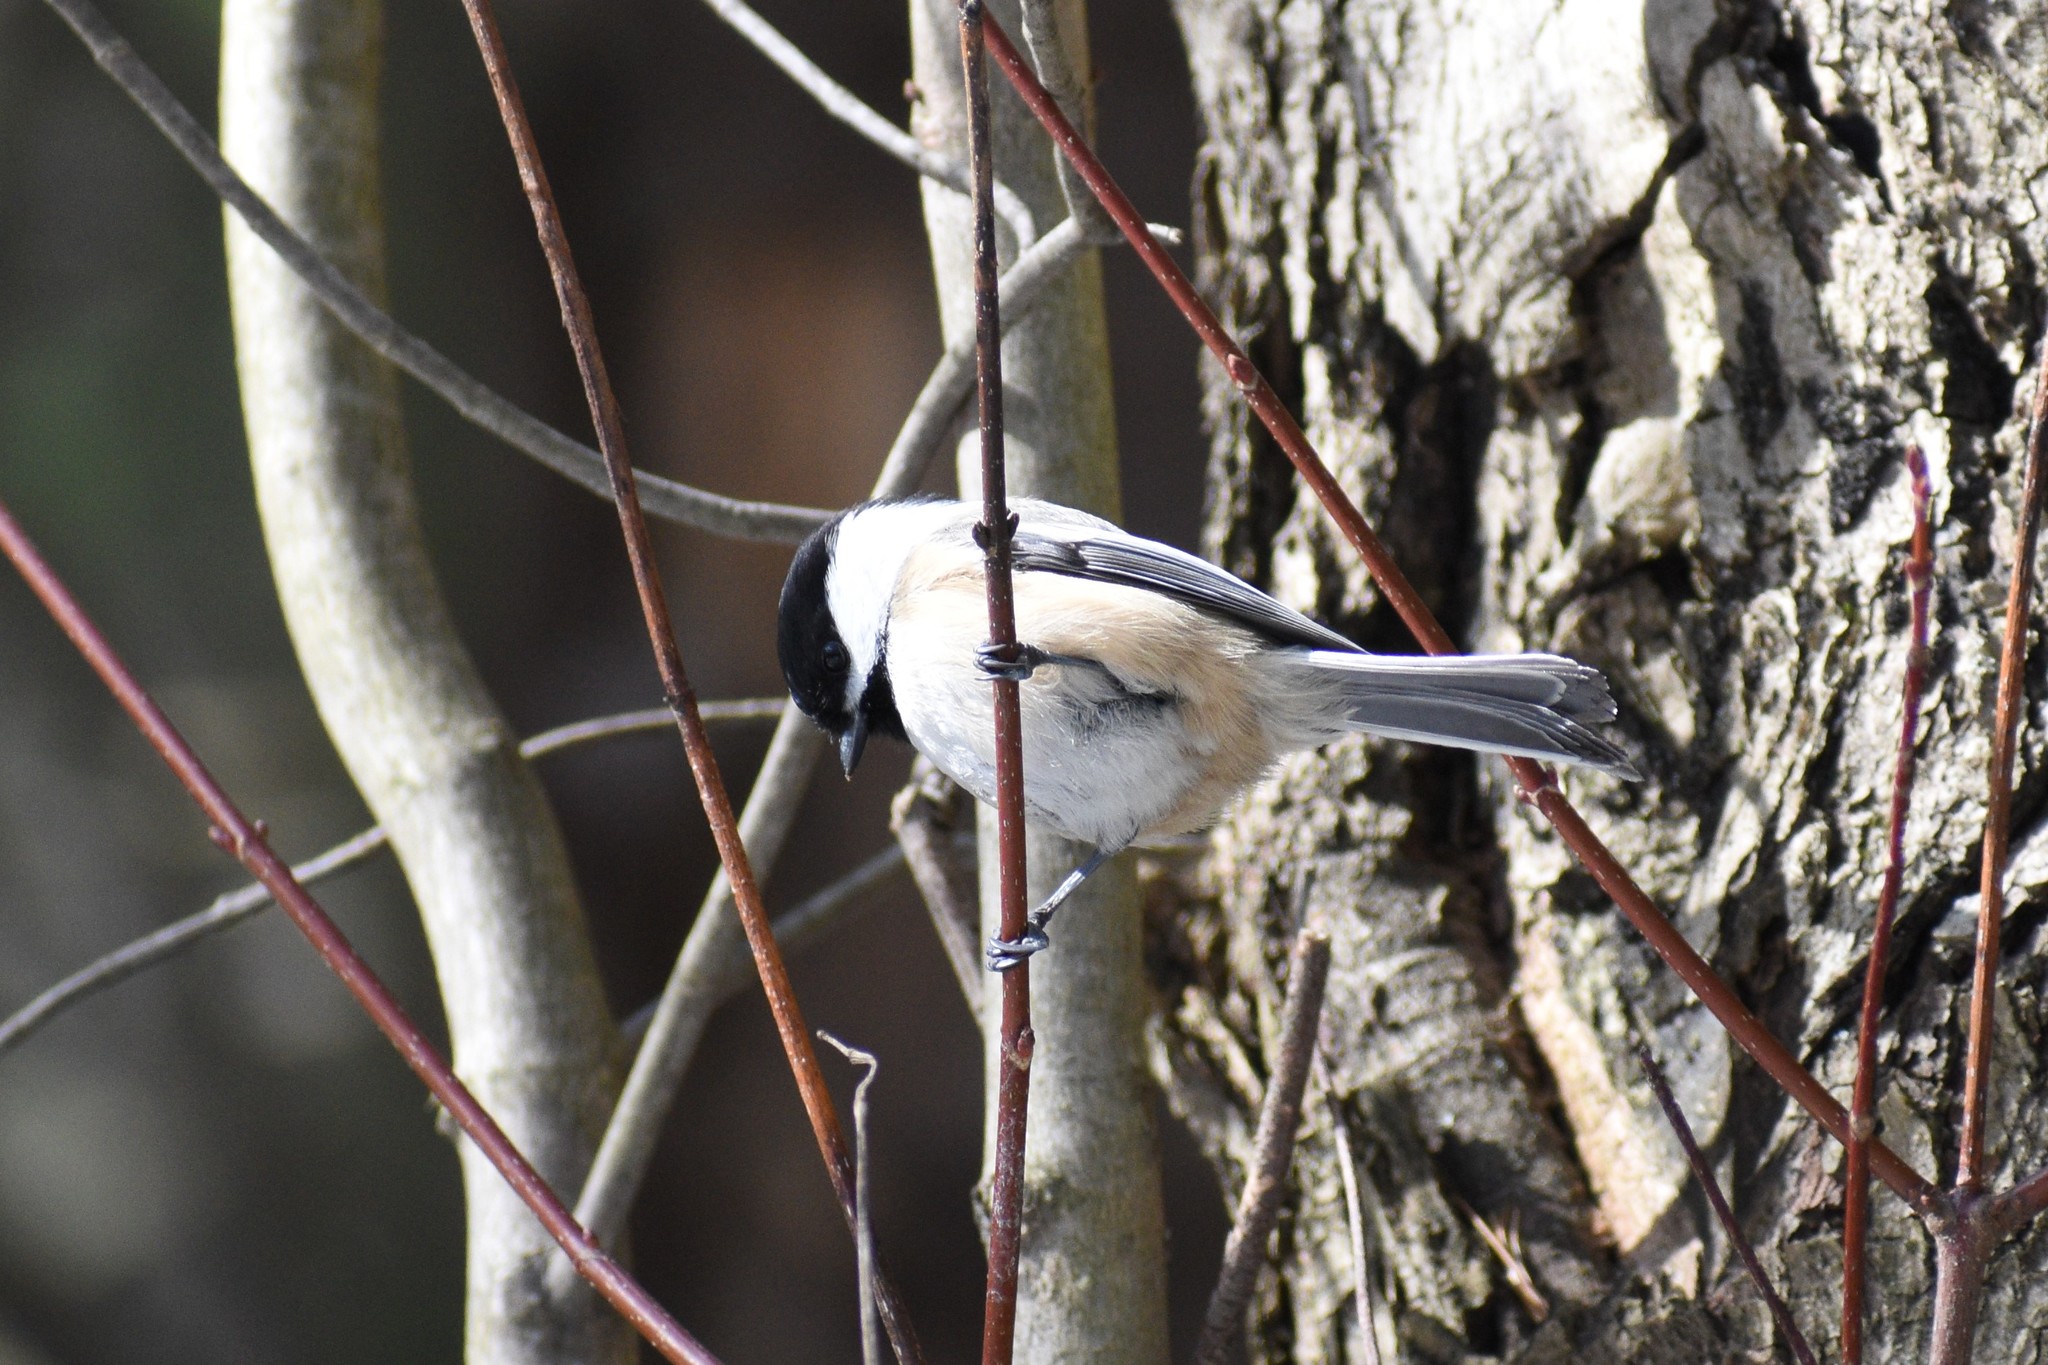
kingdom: Animalia
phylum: Chordata
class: Aves
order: Passeriformes
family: Paridae
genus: Poecile
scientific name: Poecile atricapillus
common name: Black-capped chickadee
